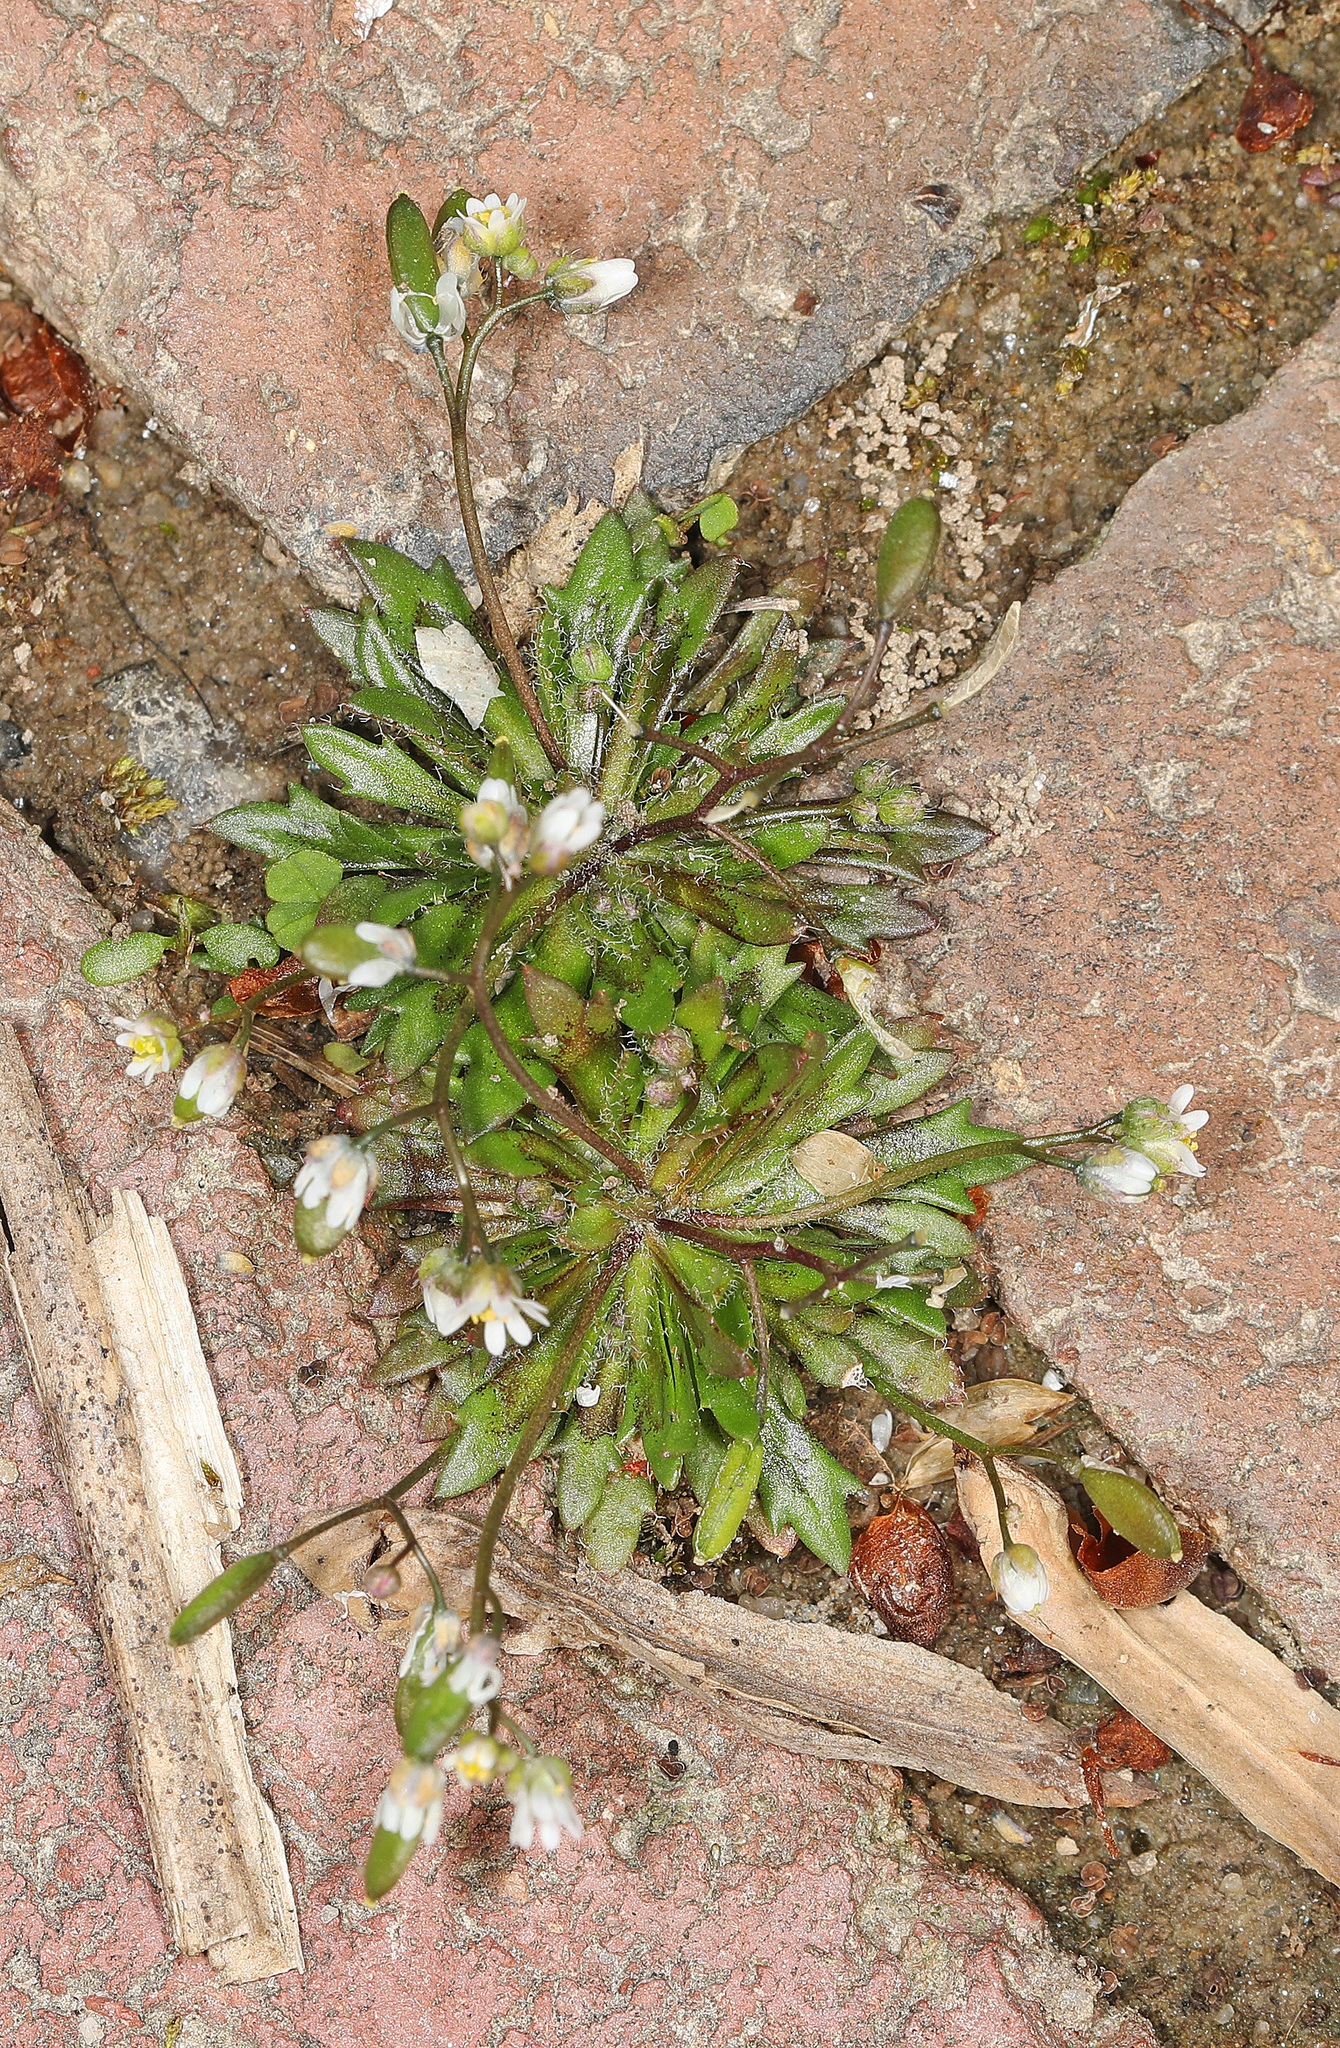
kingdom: Plantae
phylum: Tracheophyta
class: Magnoliopsida
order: Brassicales
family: Brassicaceae
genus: Draba
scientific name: Draba verna
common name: Spring draba
